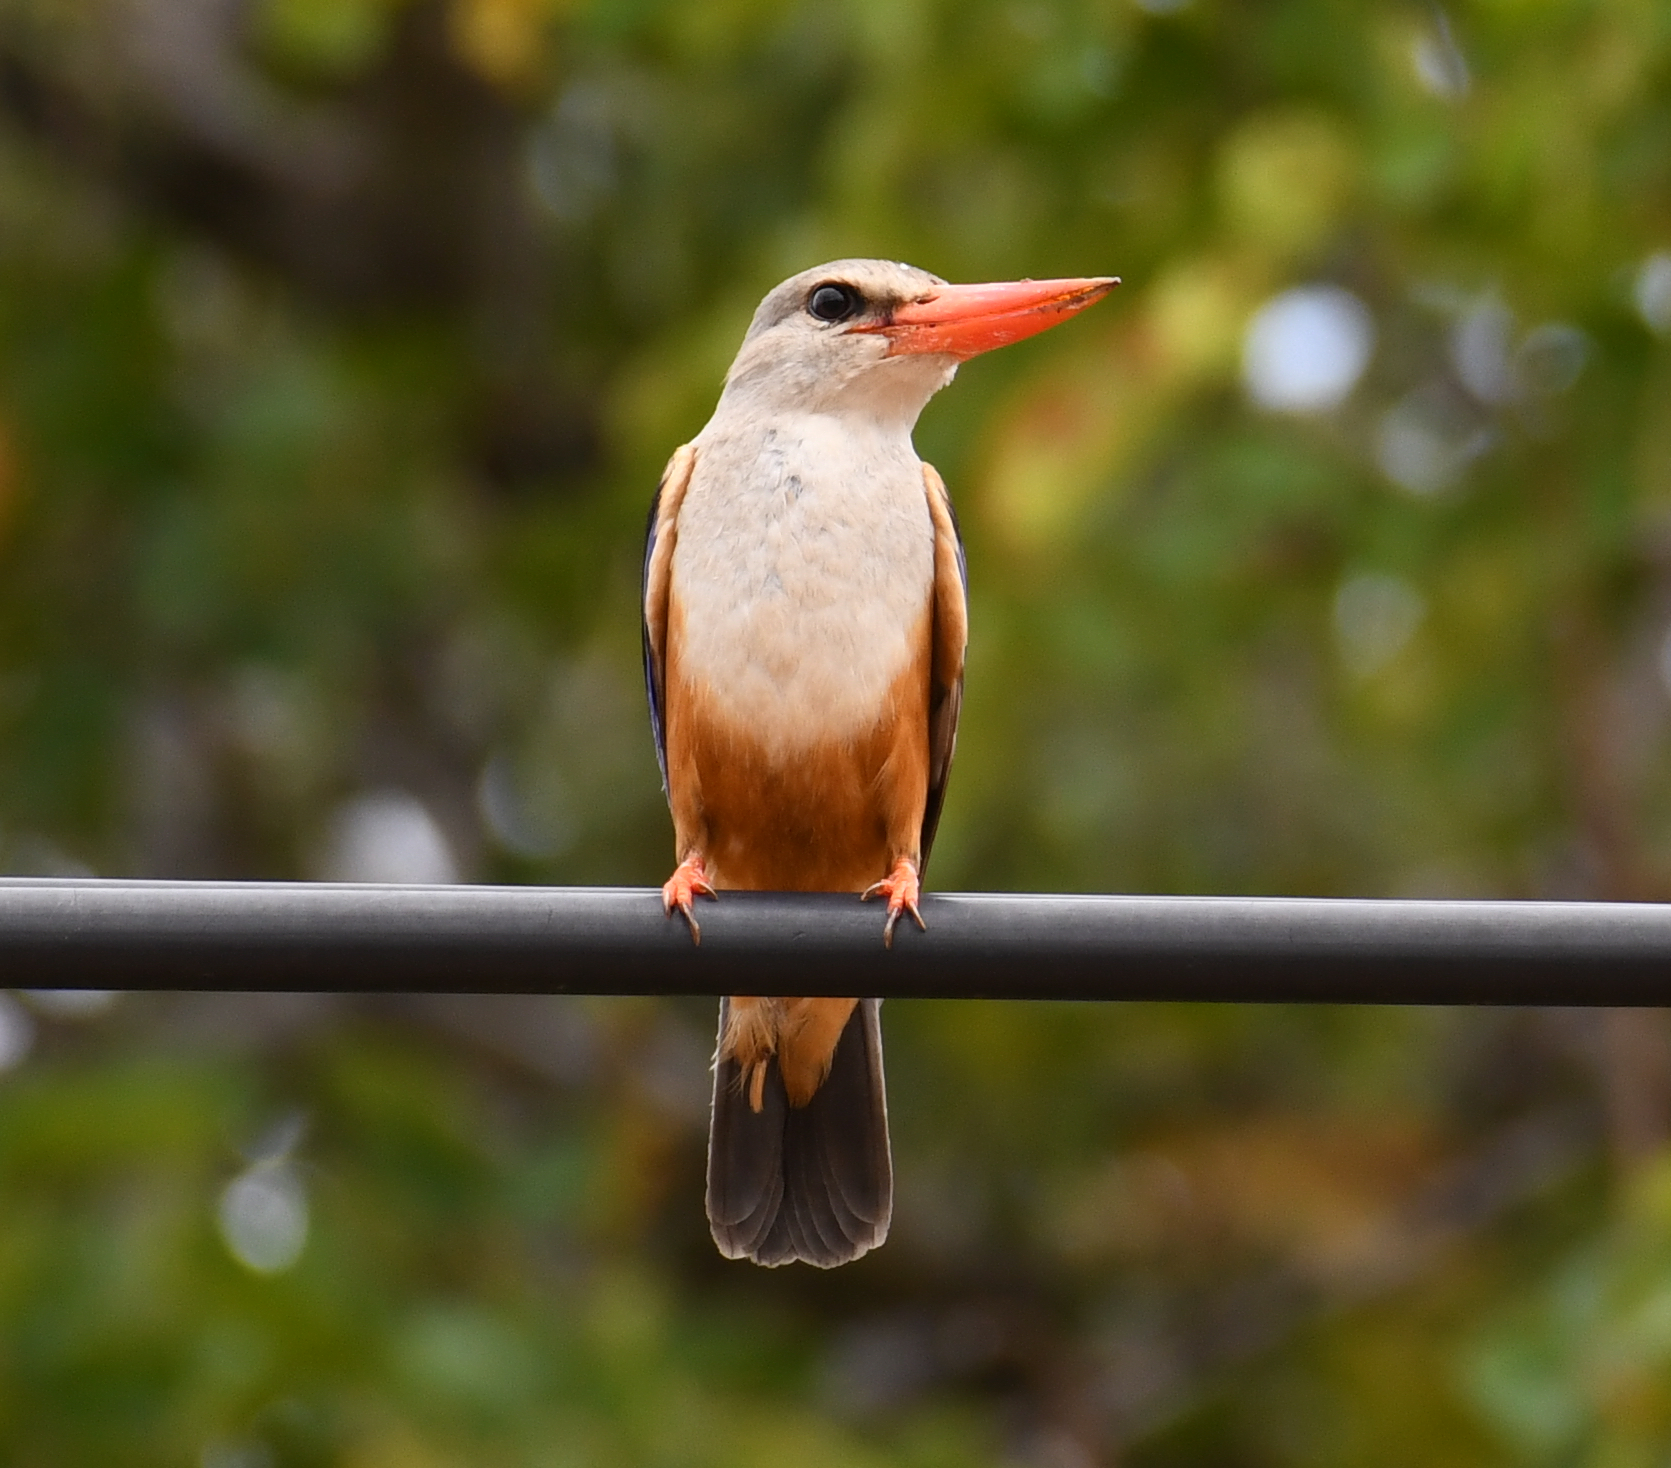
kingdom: Animalia
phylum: Chordata
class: Aves
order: Coraciiformes
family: Alcedinidae
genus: Halcyon
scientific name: Halcyon leucocephala
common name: Grey-headed kingfisher
